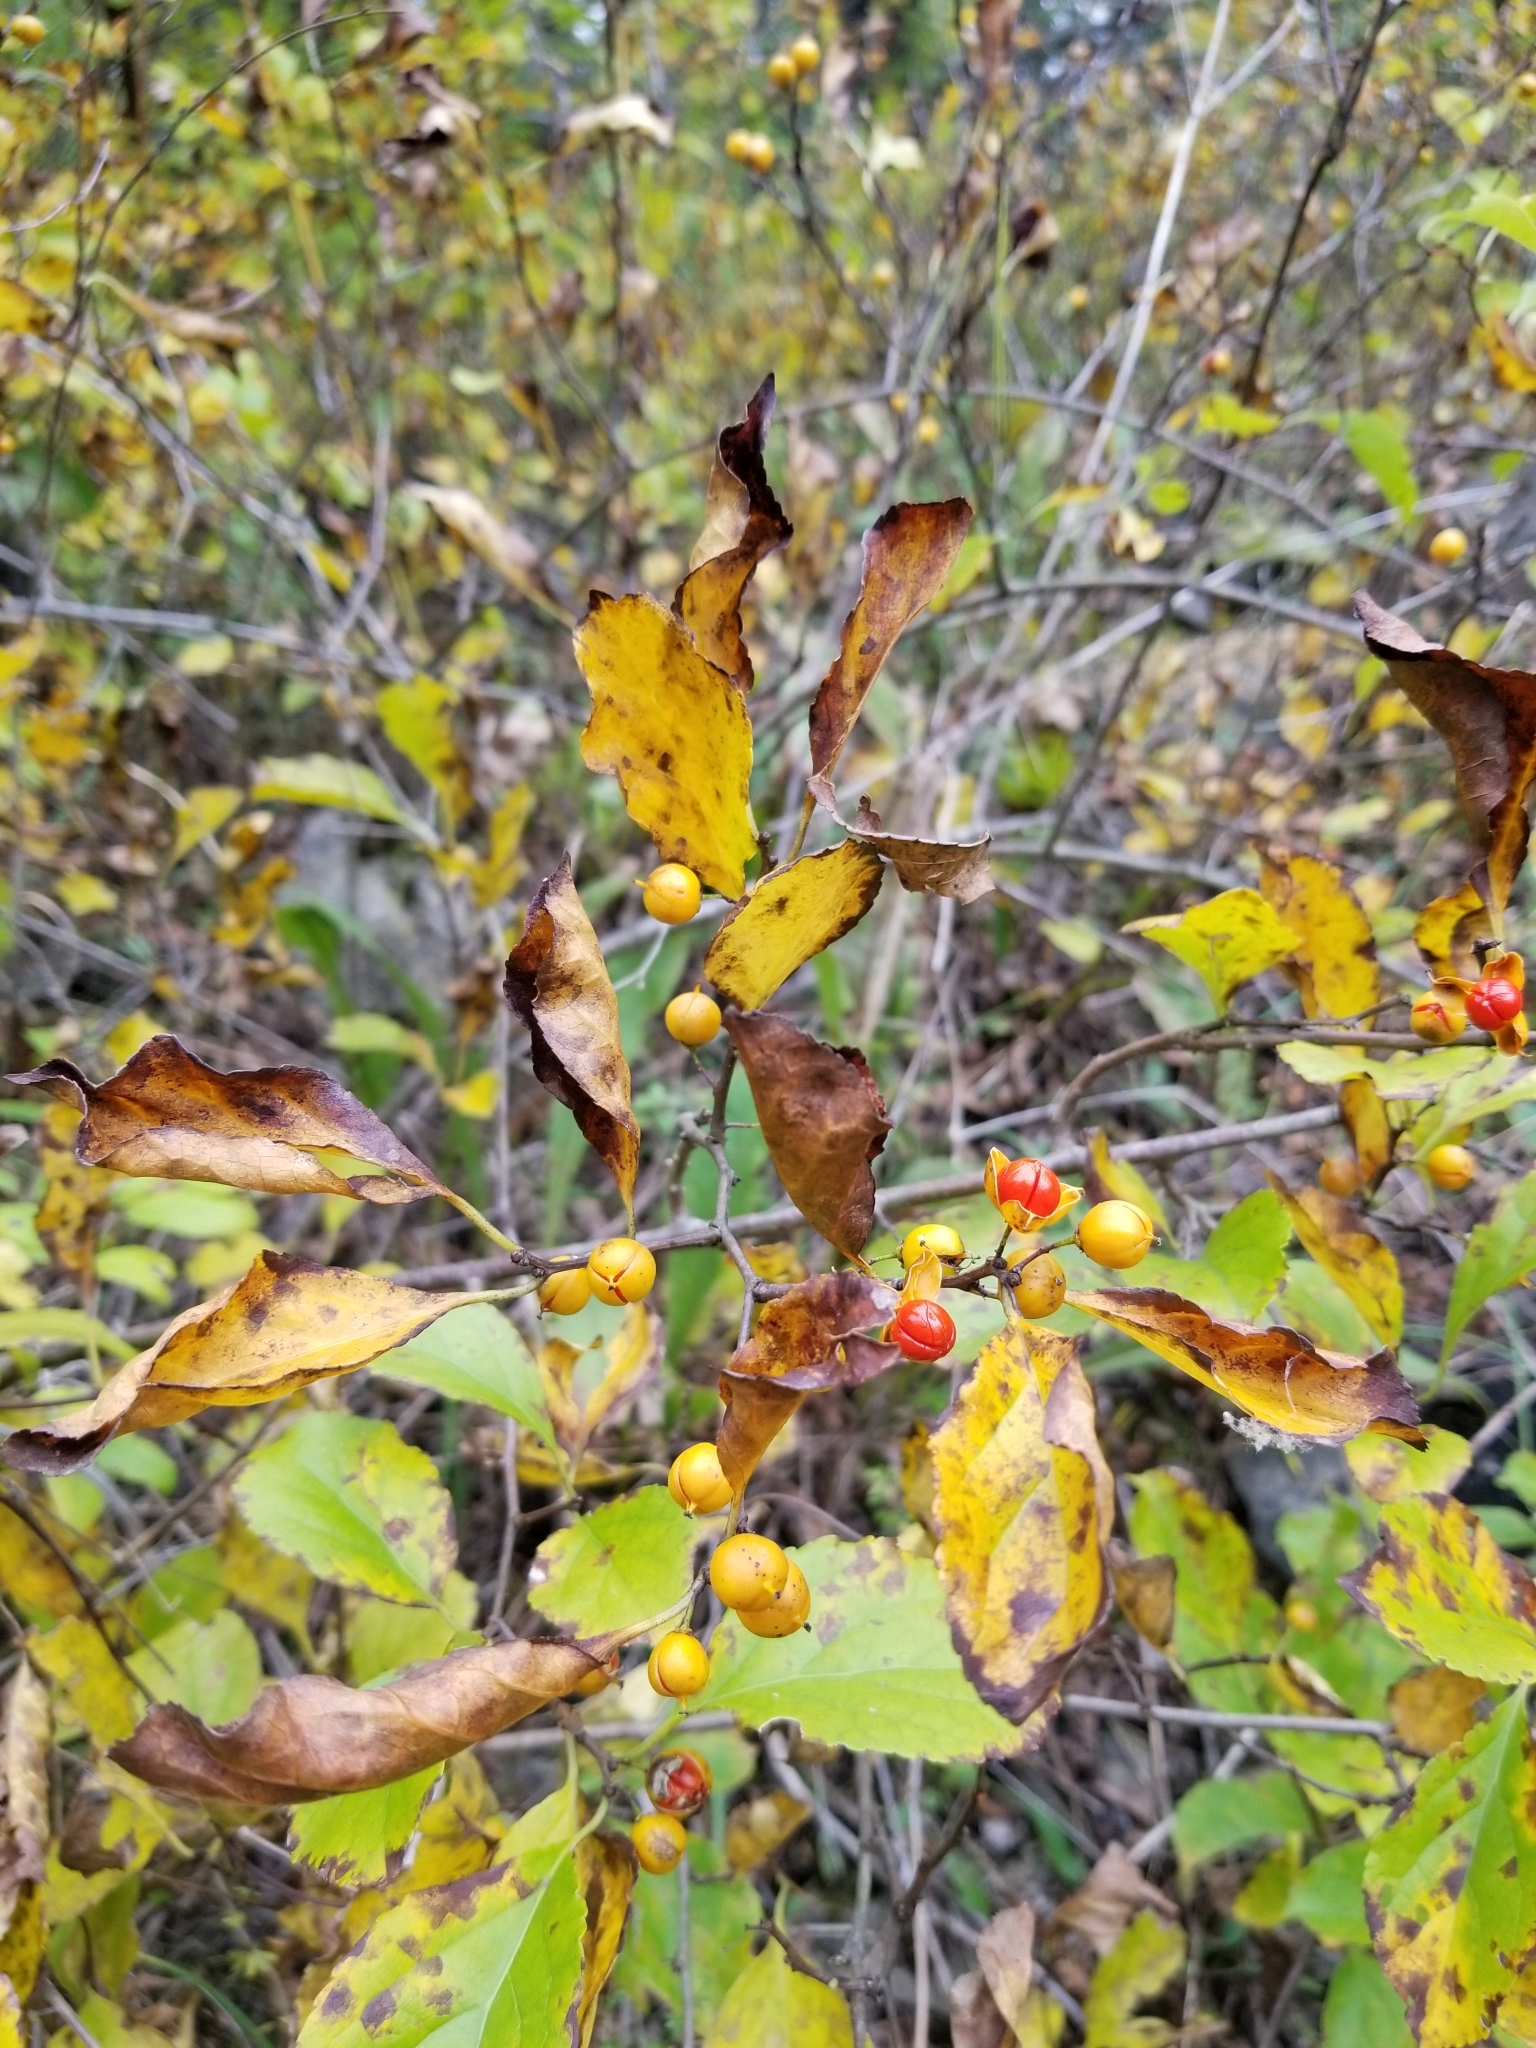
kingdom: Plantae
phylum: Tracheophyta
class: Magnoliopsida
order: Celastrales
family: Celastraceae
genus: Celastrus
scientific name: Celastrus orbiculatus
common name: Oriental bittersweet
